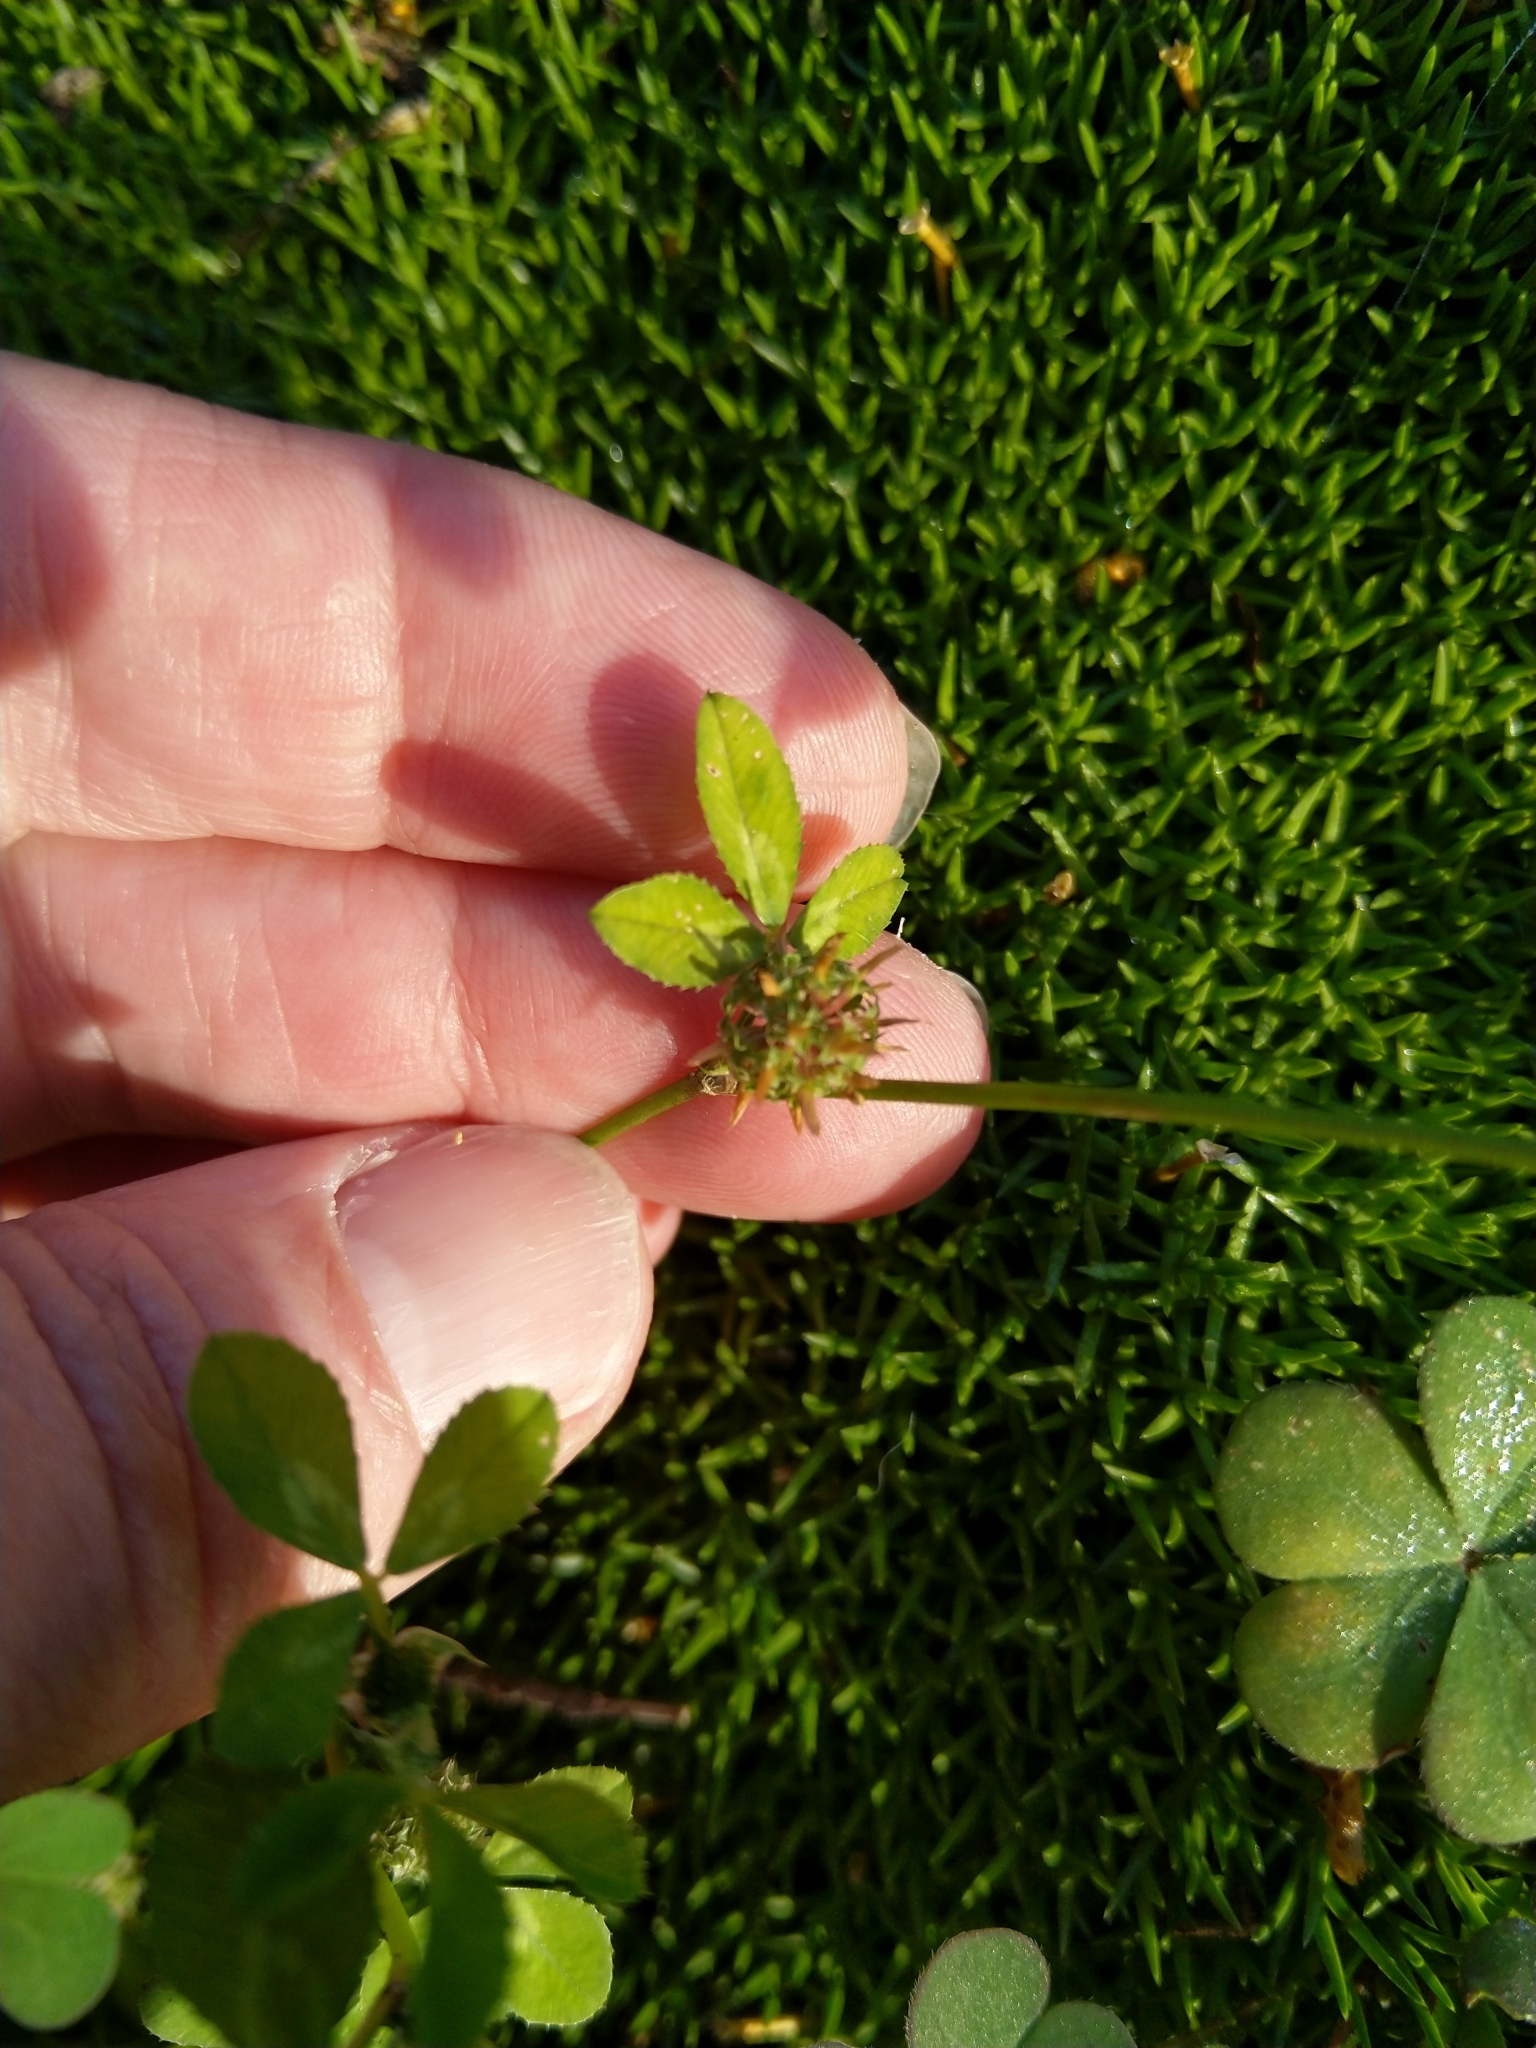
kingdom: Plantae
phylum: Tracheophyta
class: Magnoliopsida
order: Fabales
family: Fabaceae
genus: Trifolium
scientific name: Trifolium glomeratum
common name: Clustered clover
